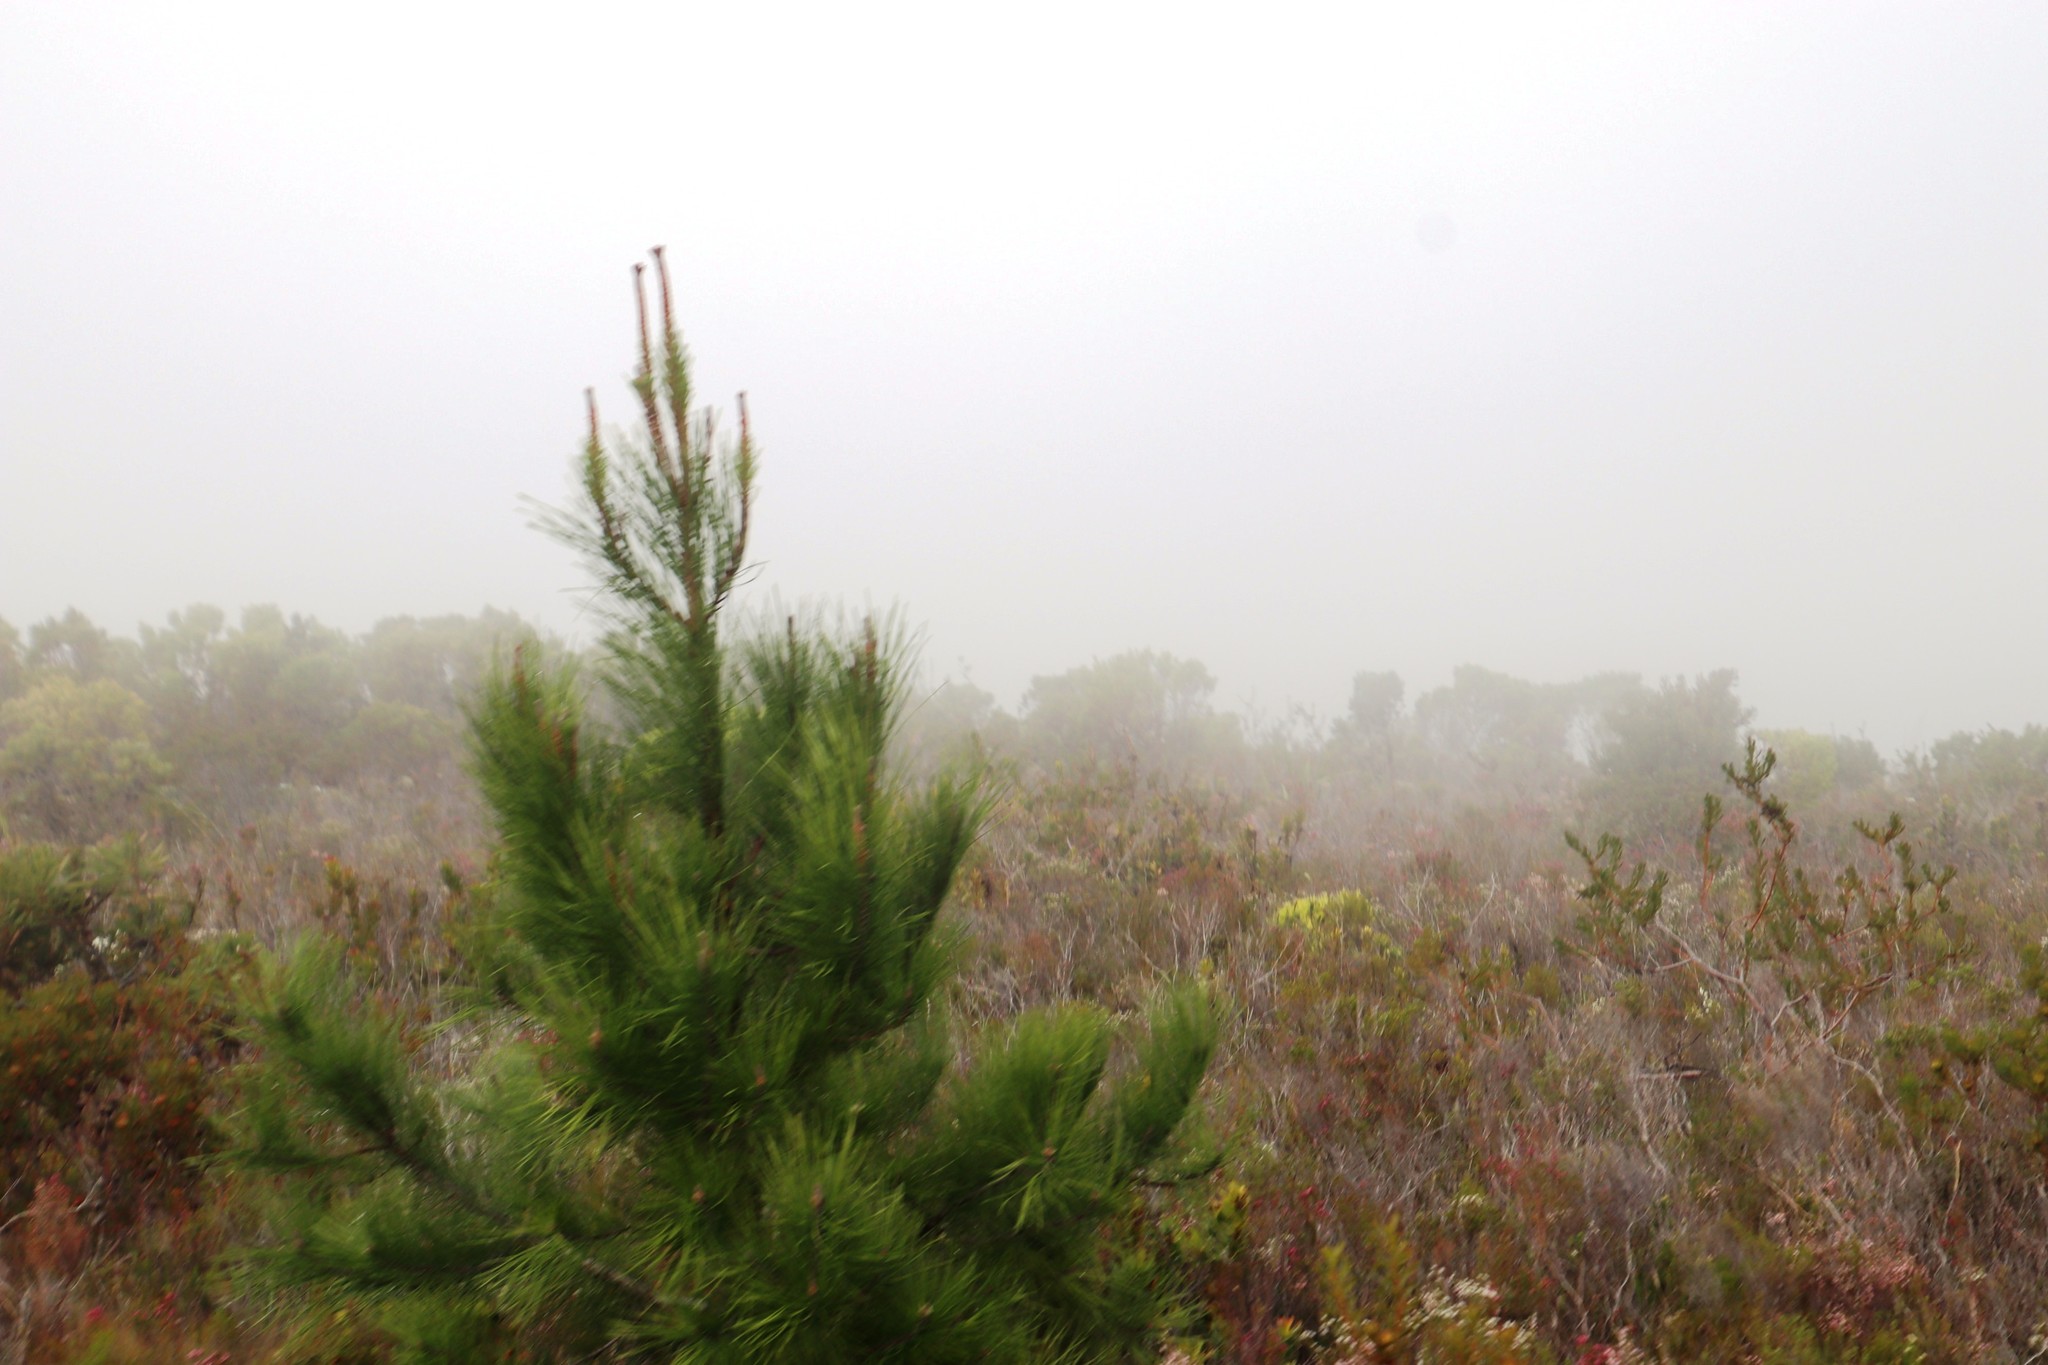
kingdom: Plantae
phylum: Tracheophyta
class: Pinopsida
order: Pinales
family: Pinaceae
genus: Pinus
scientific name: Pinus pinaster
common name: Maritime pine
